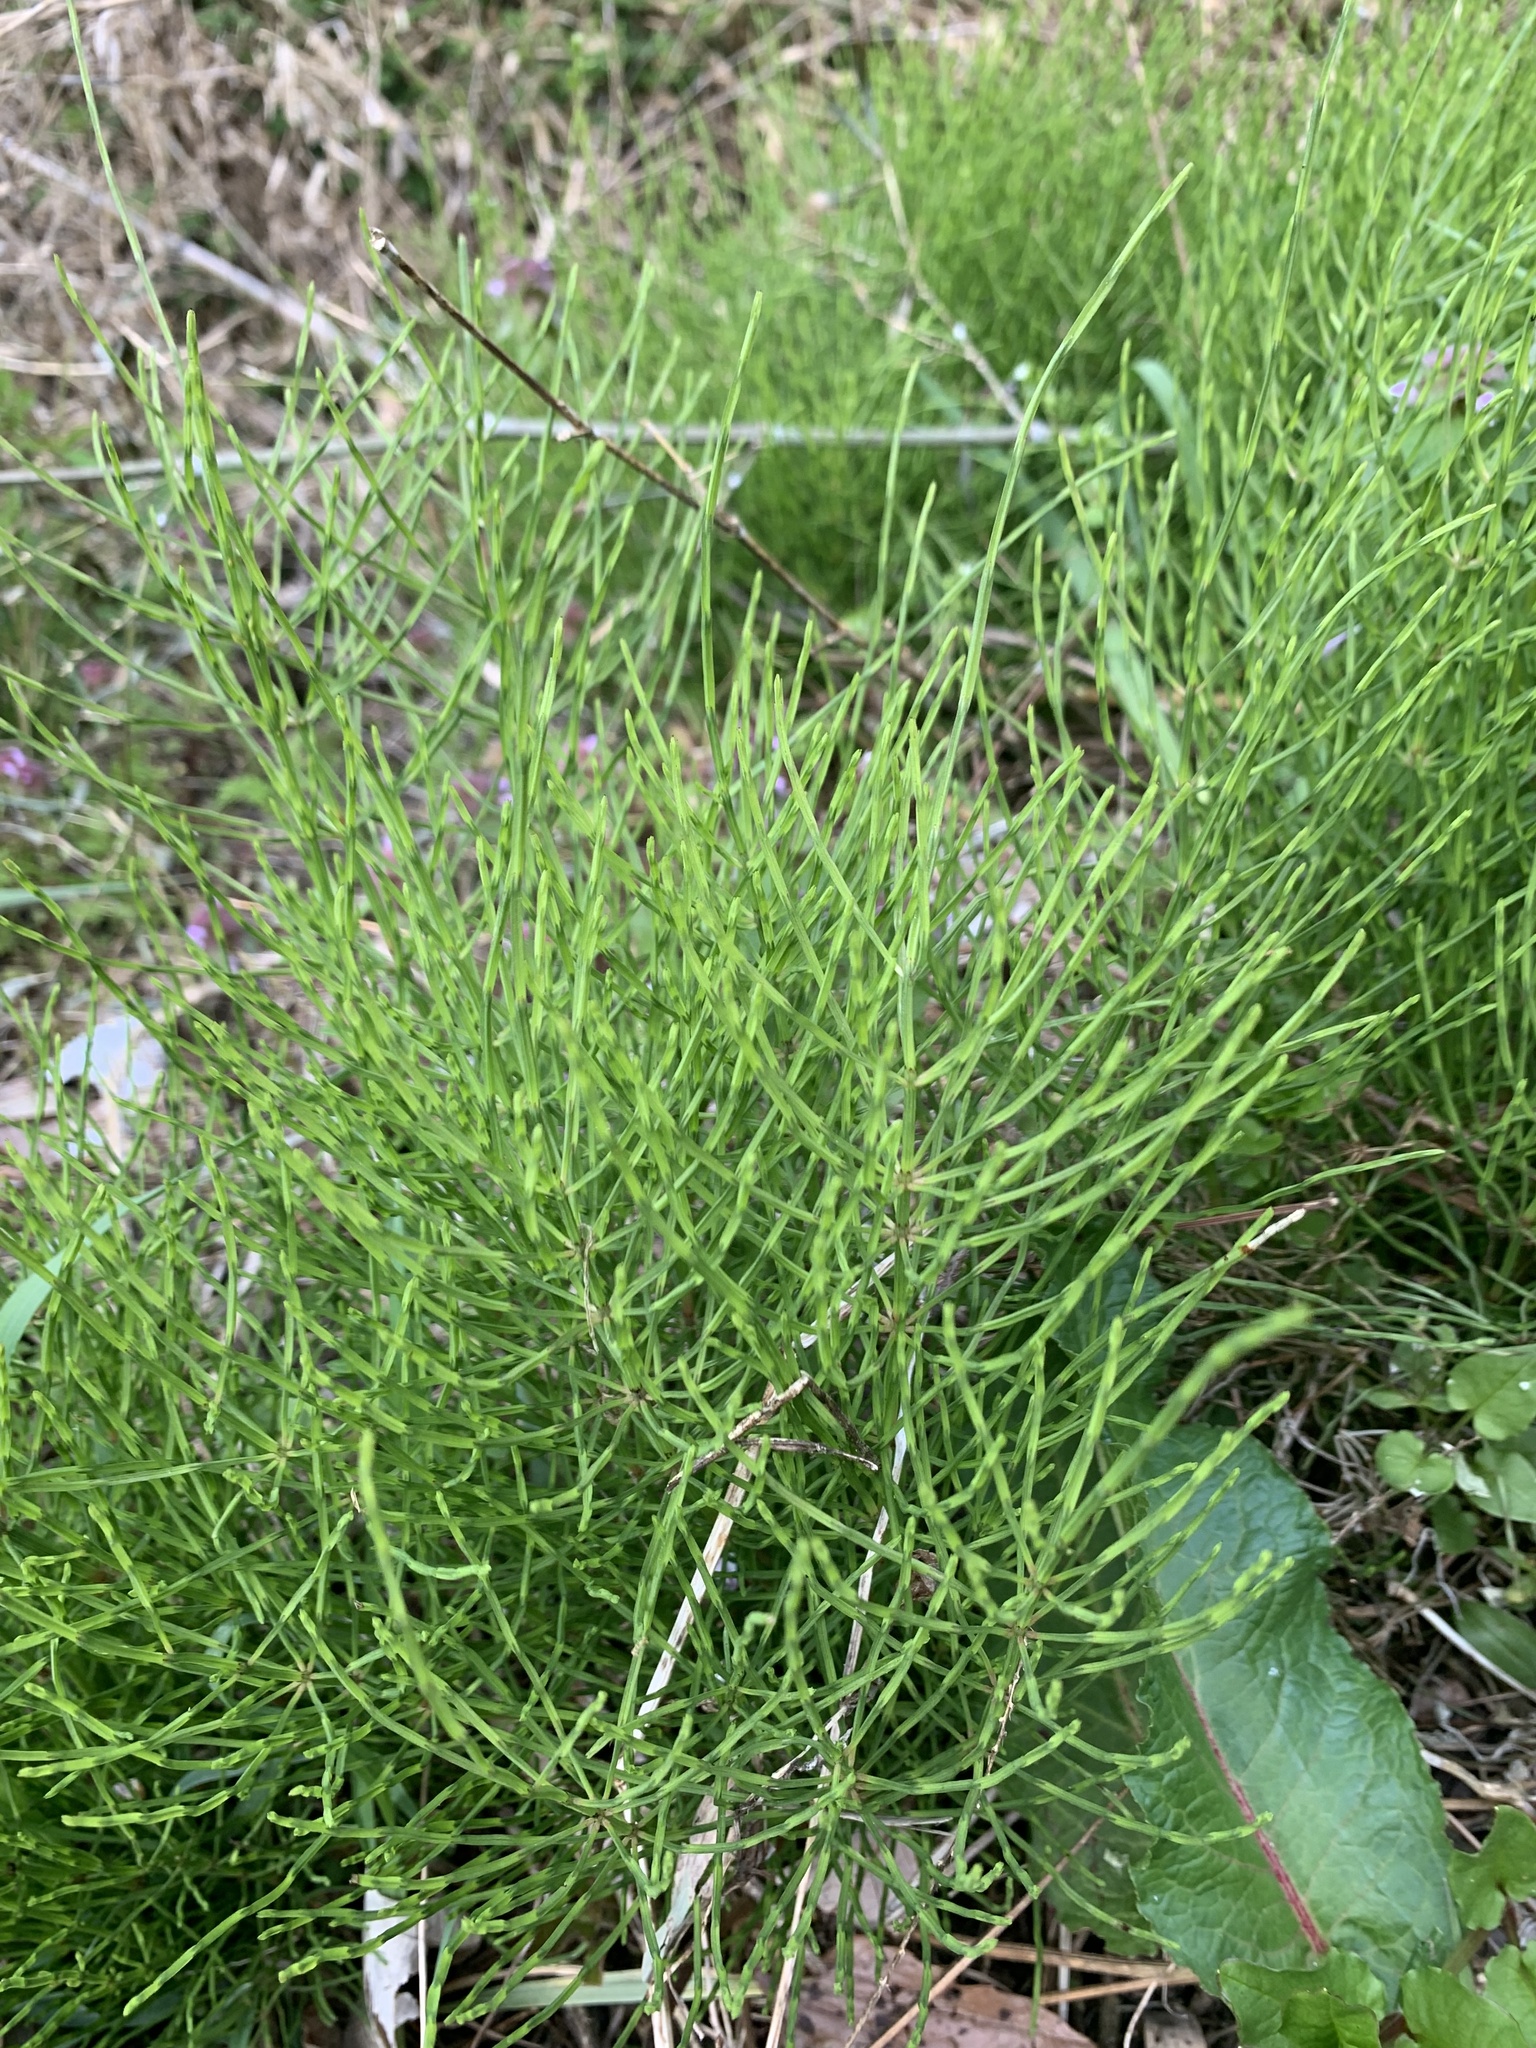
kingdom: Plantae
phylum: Tracheophyta
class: Polypodiopsida
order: Equisetales
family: Equisetaceae
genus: Equisetum
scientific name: Equisetum arvense
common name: Field horsetail
